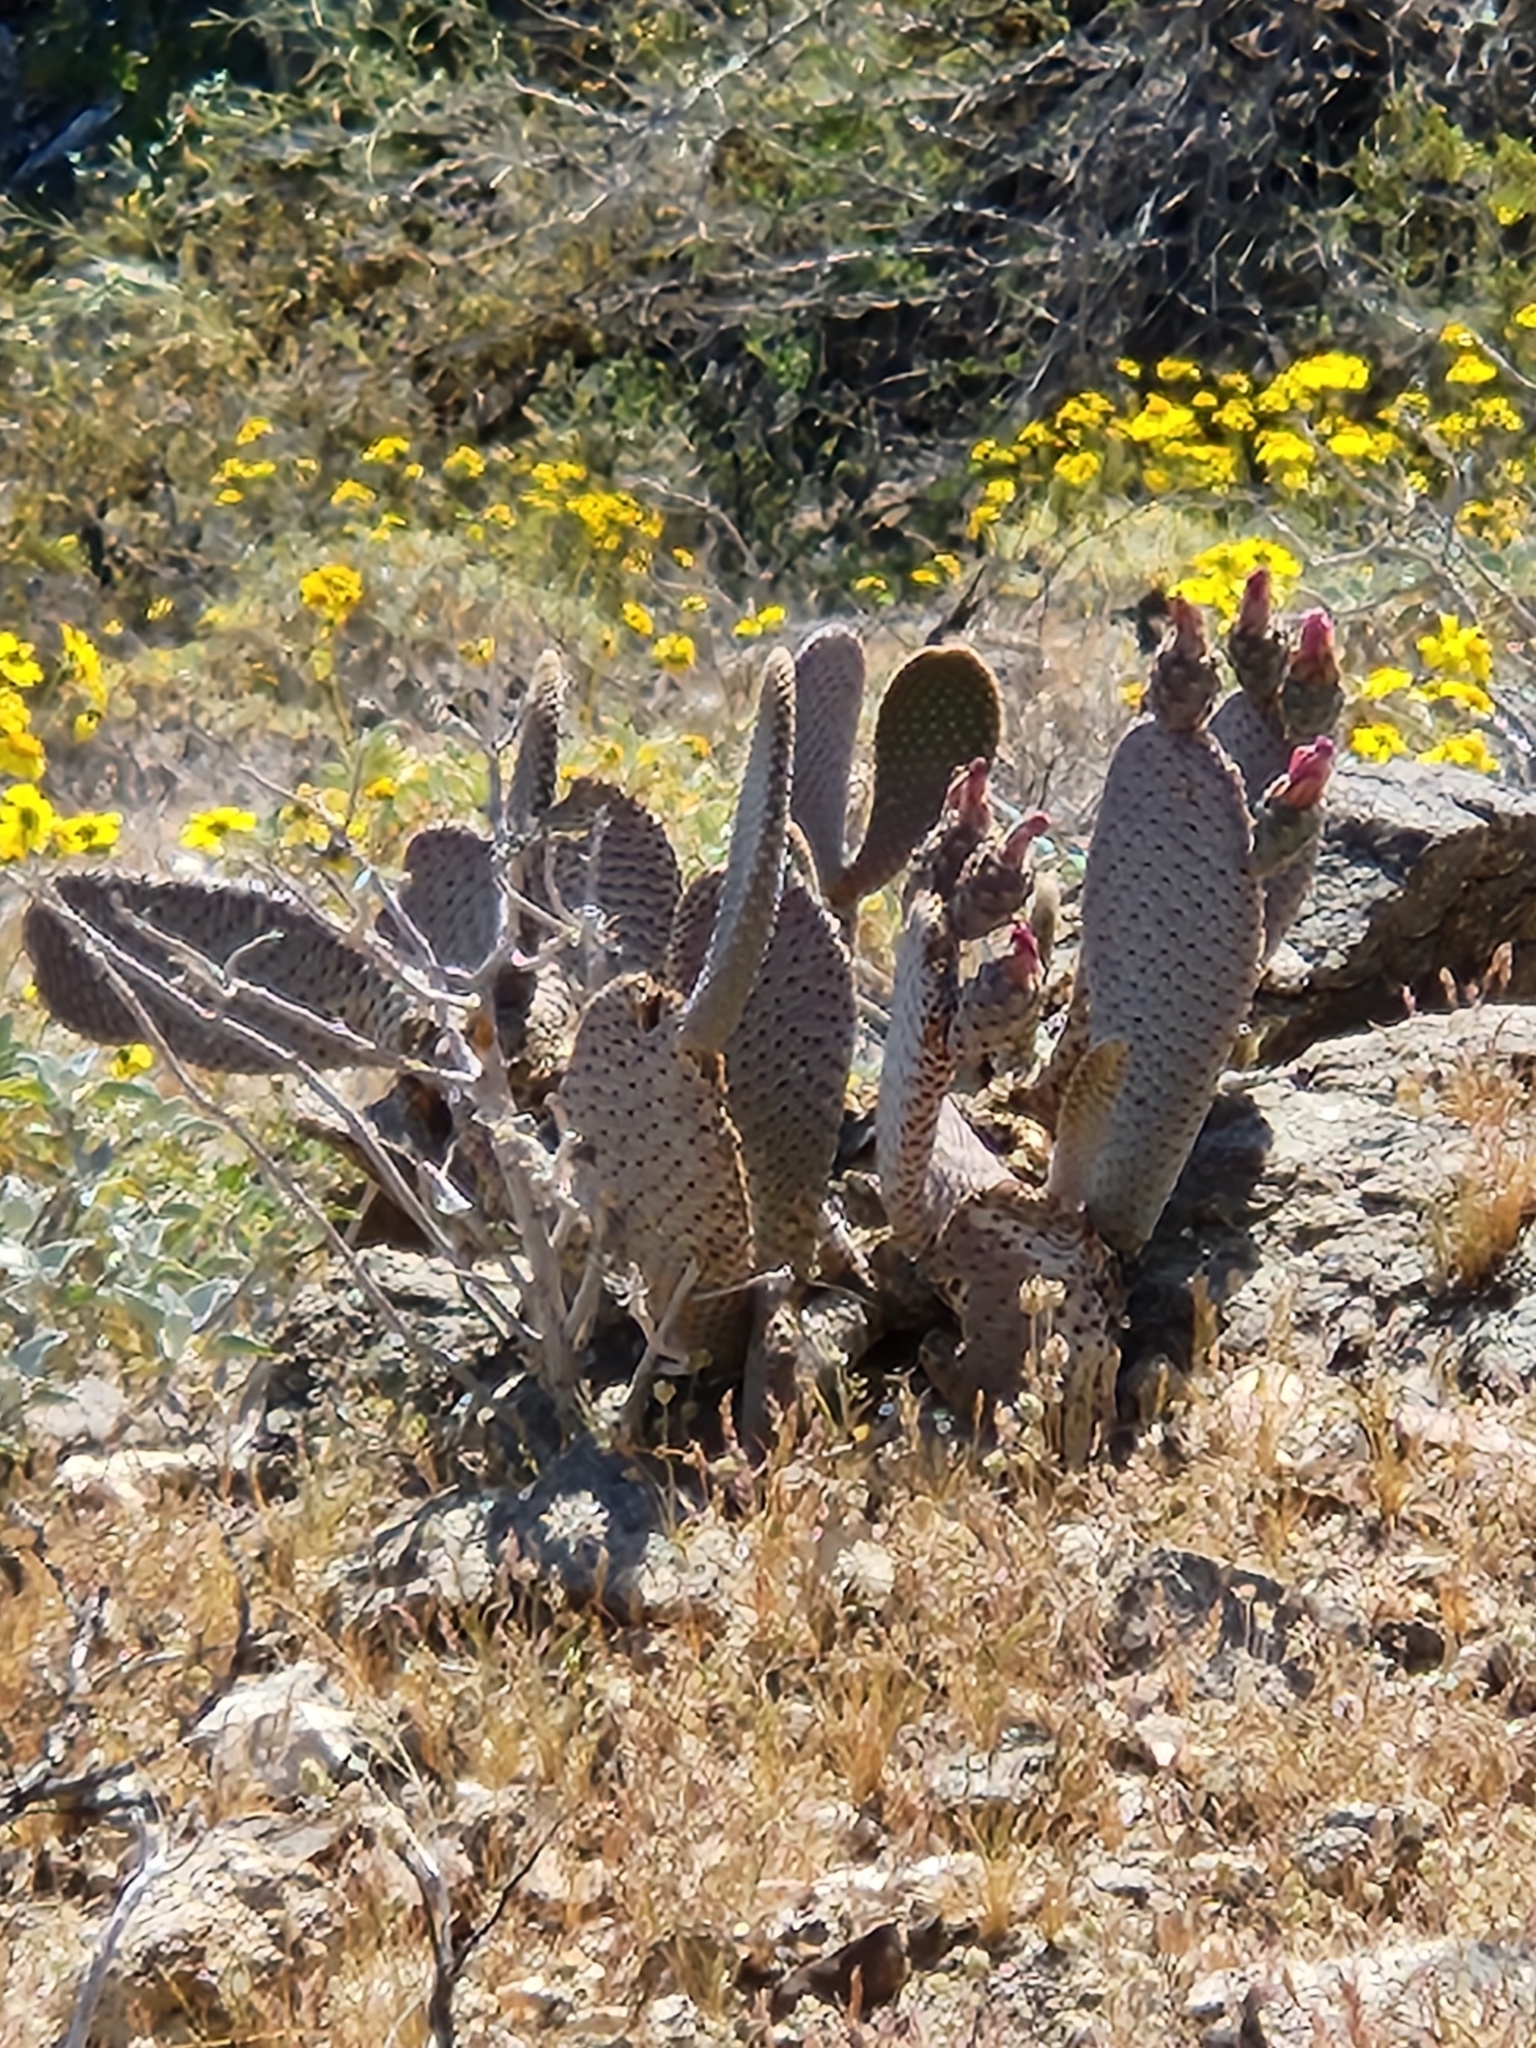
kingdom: Plantae
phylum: Tracheophyta
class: Magnoliopsida
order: Caryophyllales
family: Cactaceae
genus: Opuntia
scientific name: Opuntia basilaris
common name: Beavertail prickly-pear
